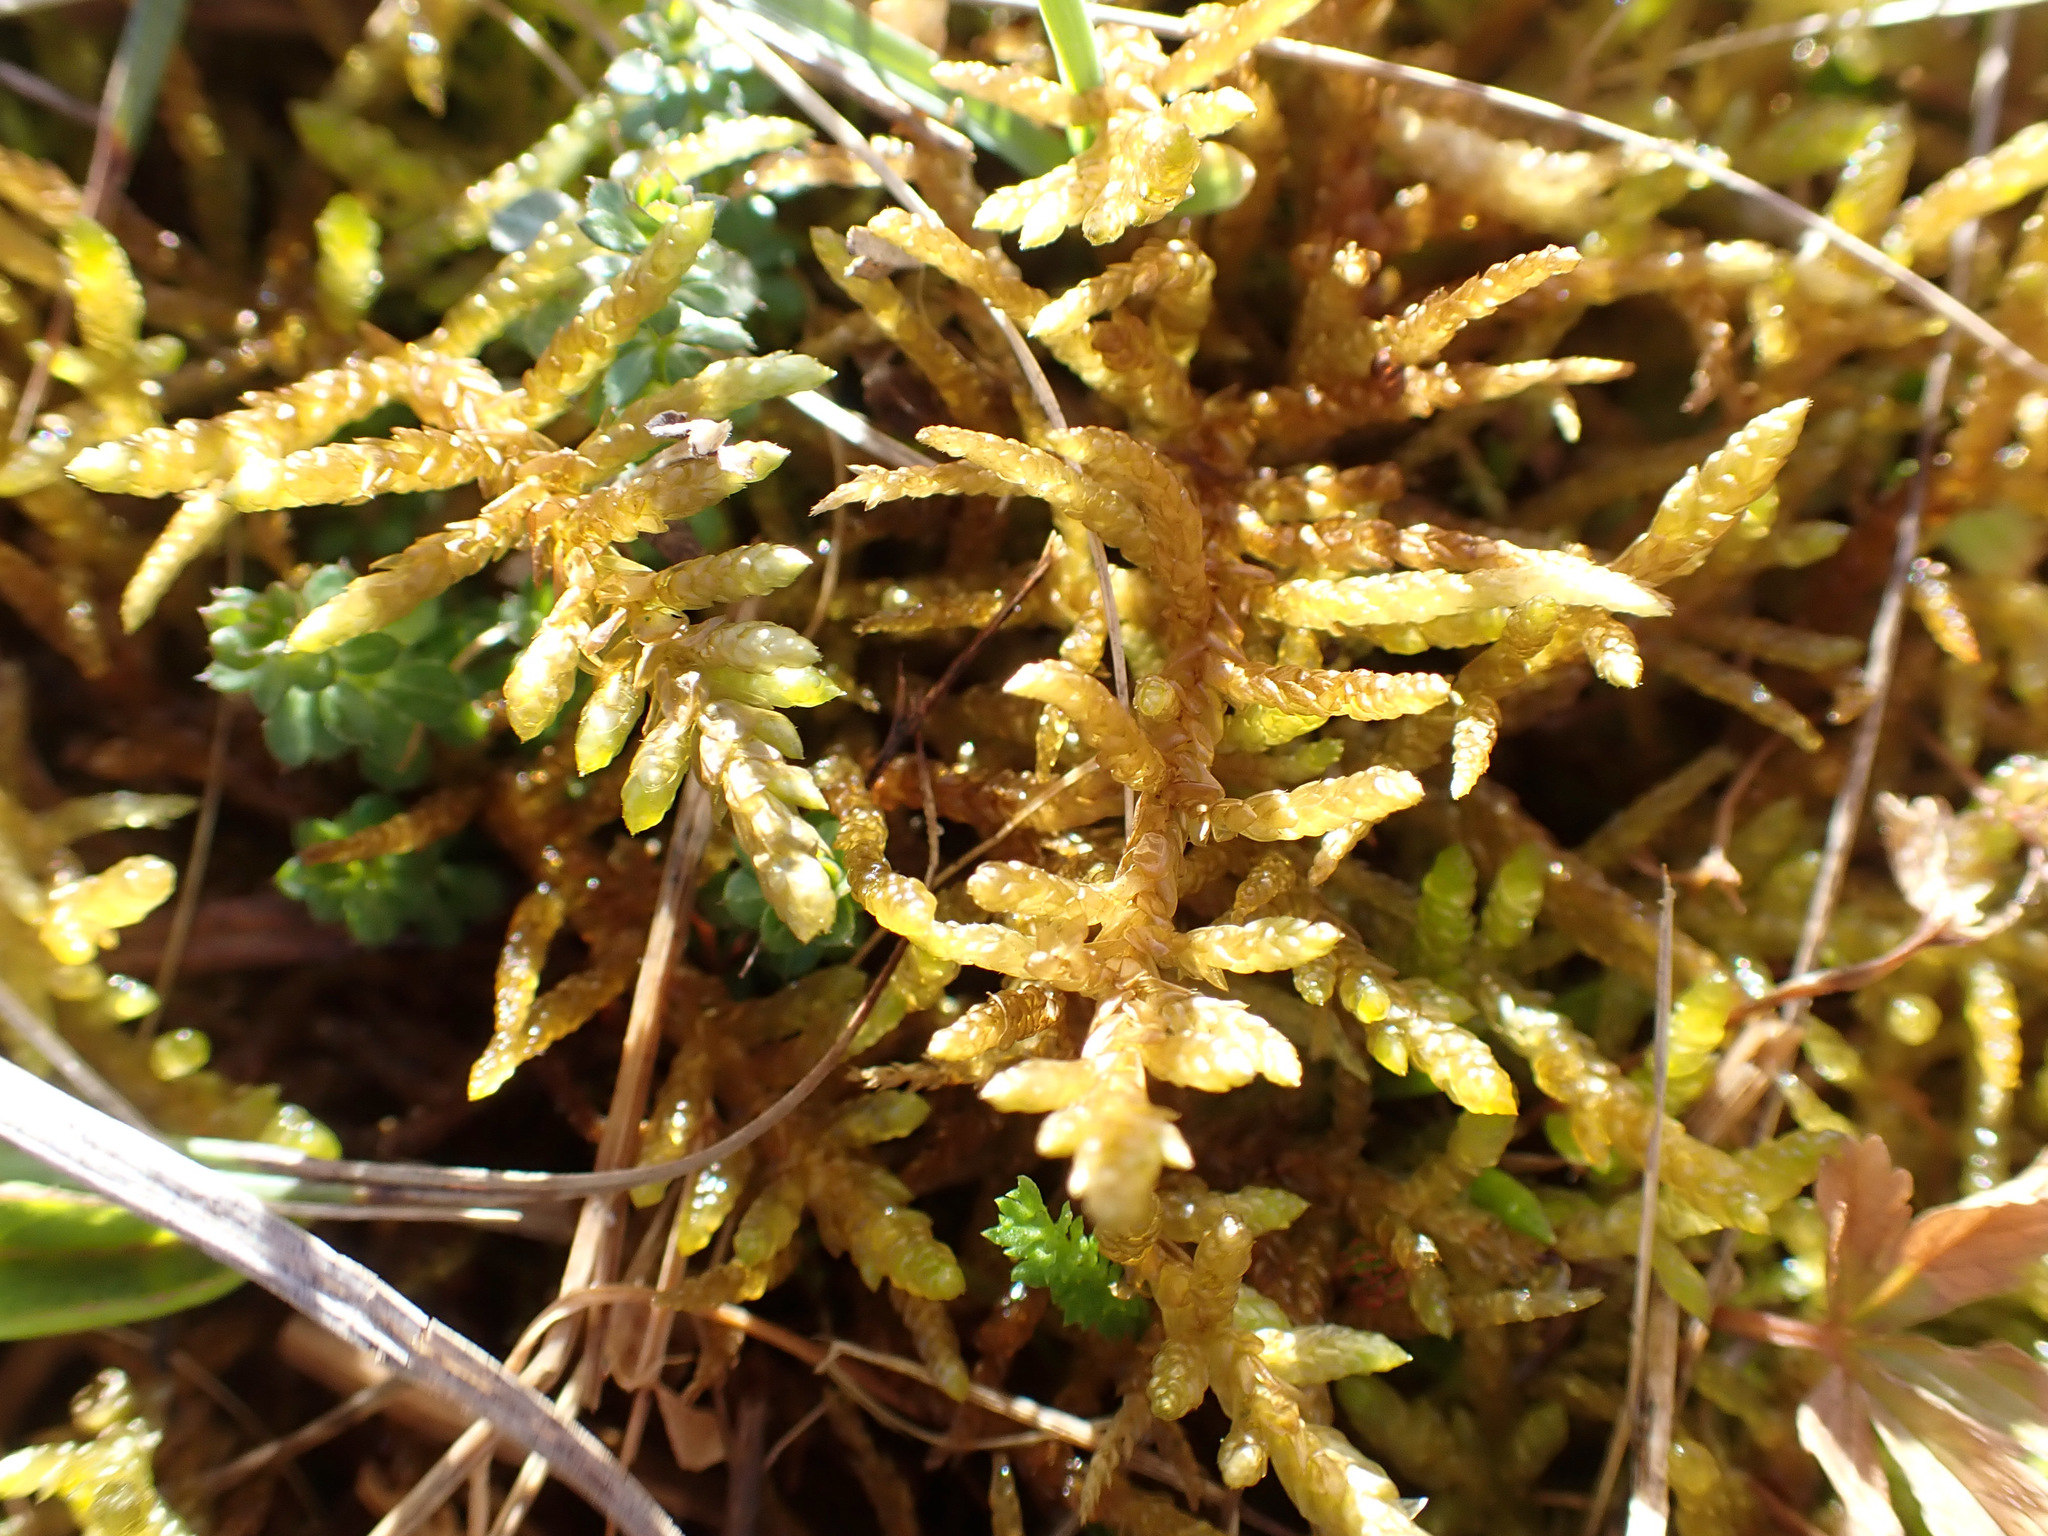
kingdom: Plantae
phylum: Bryophyta
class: Bryopsida
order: Hypnales
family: Brachytheciaceae
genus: Pseudoscleropodium
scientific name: Pseudoscleropodium purum
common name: Neat feather-moss
